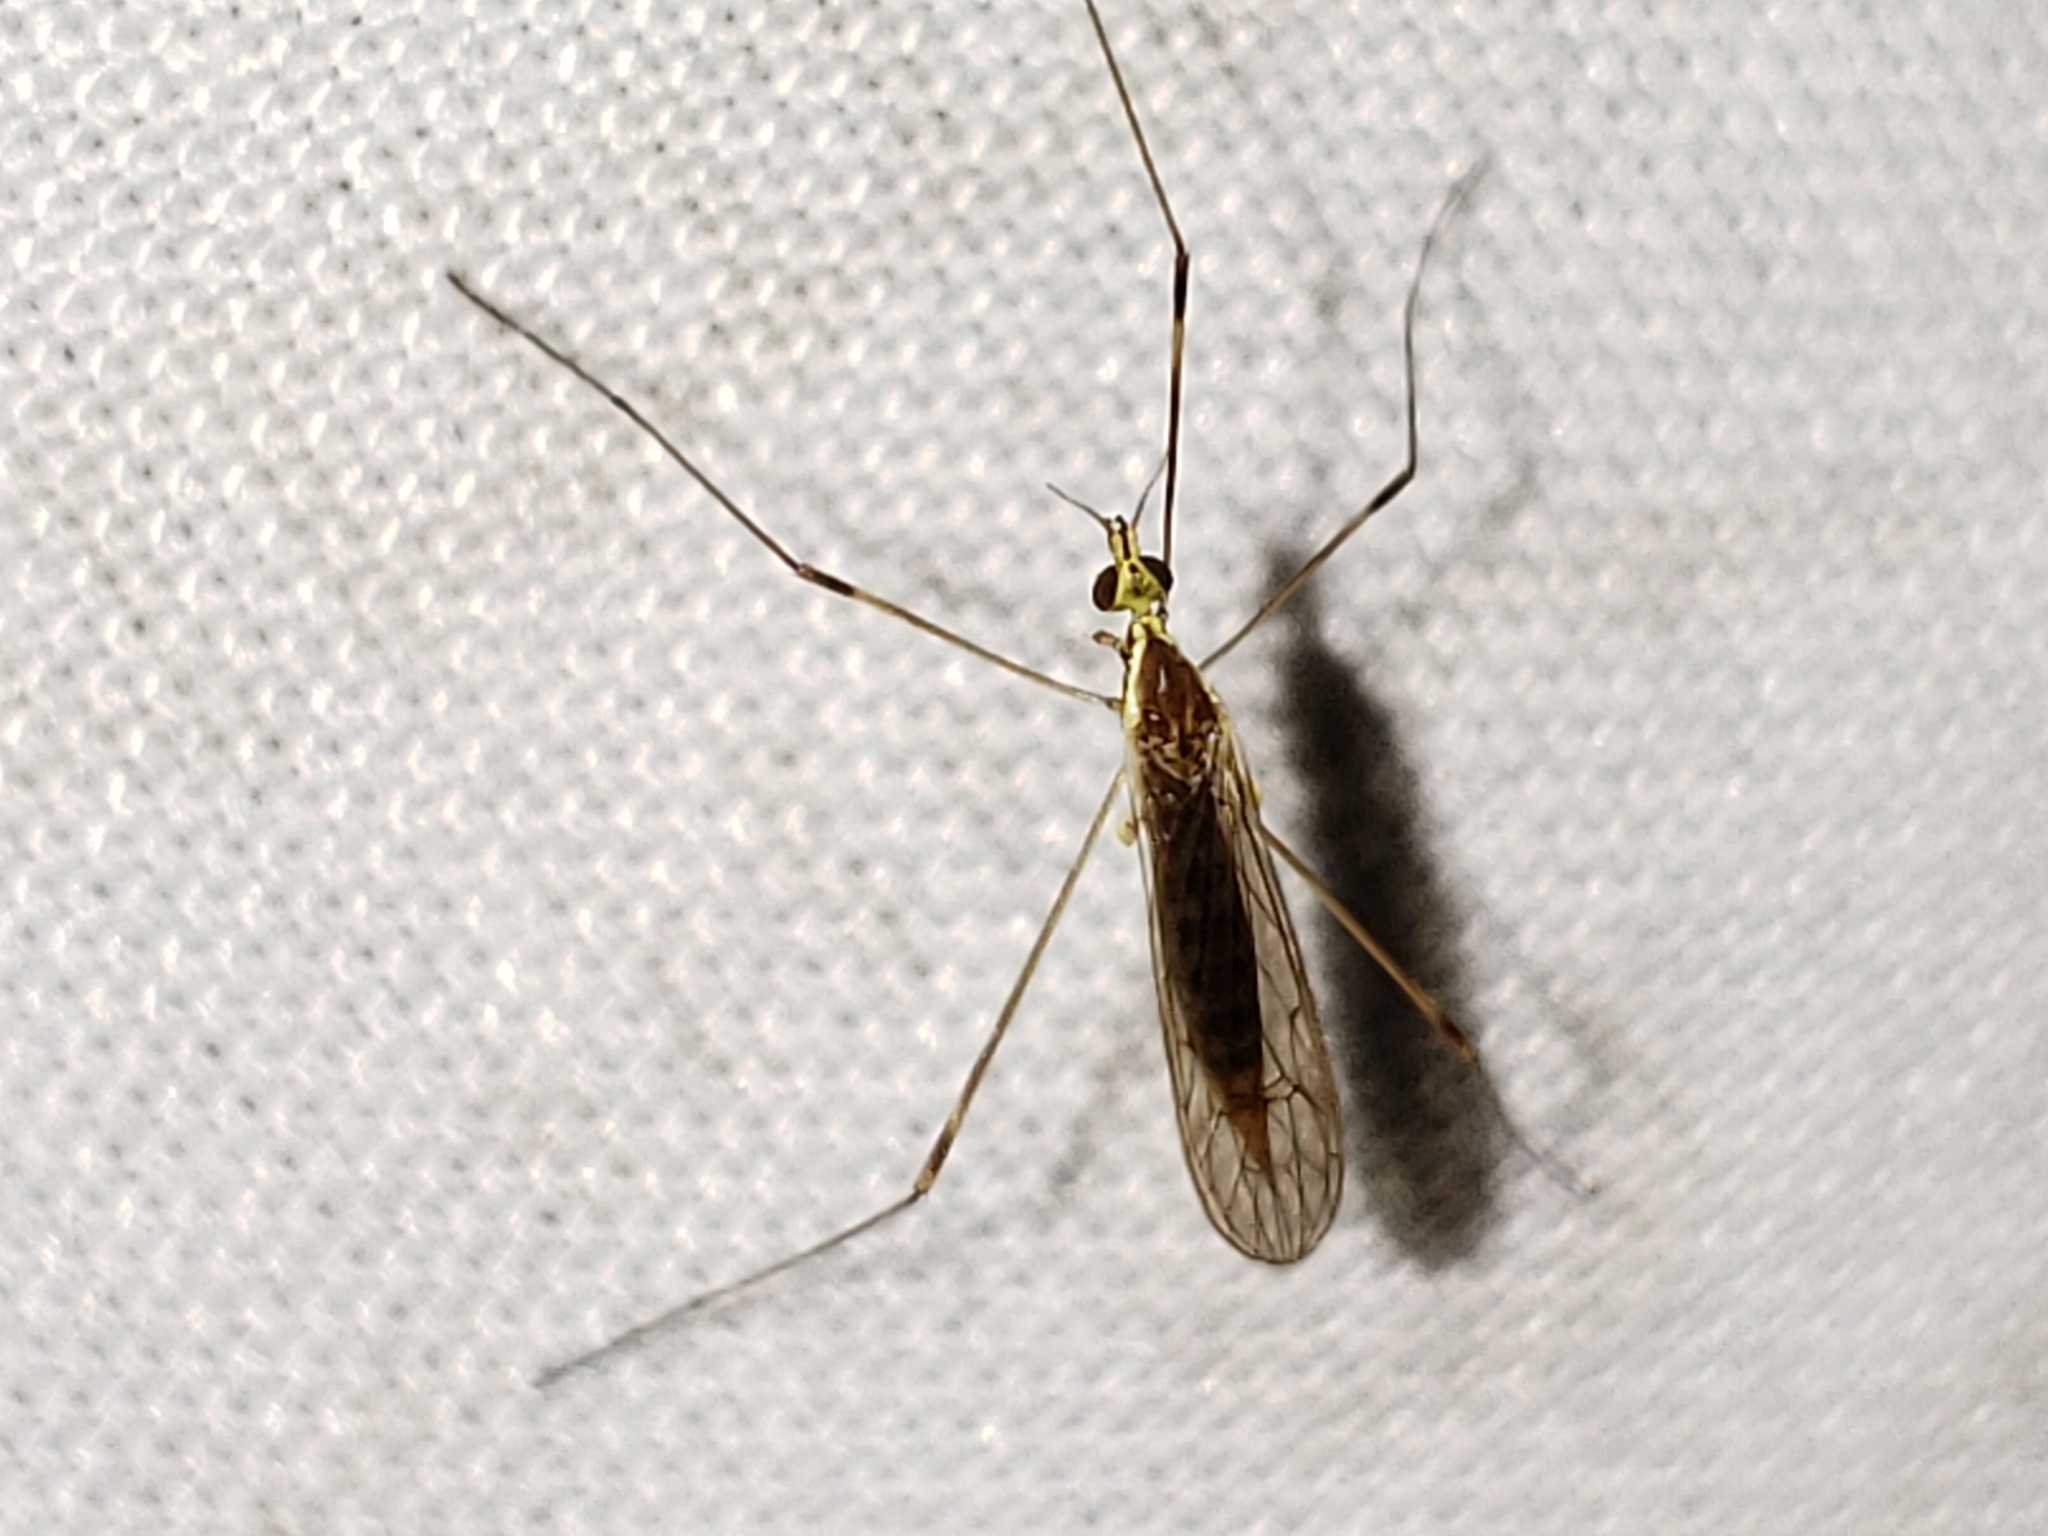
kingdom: Animalia
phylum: Arthropoda
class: Insecta
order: Diptera
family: Limoniidae
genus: Gonomyia
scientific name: Gonomyia sulphurella
